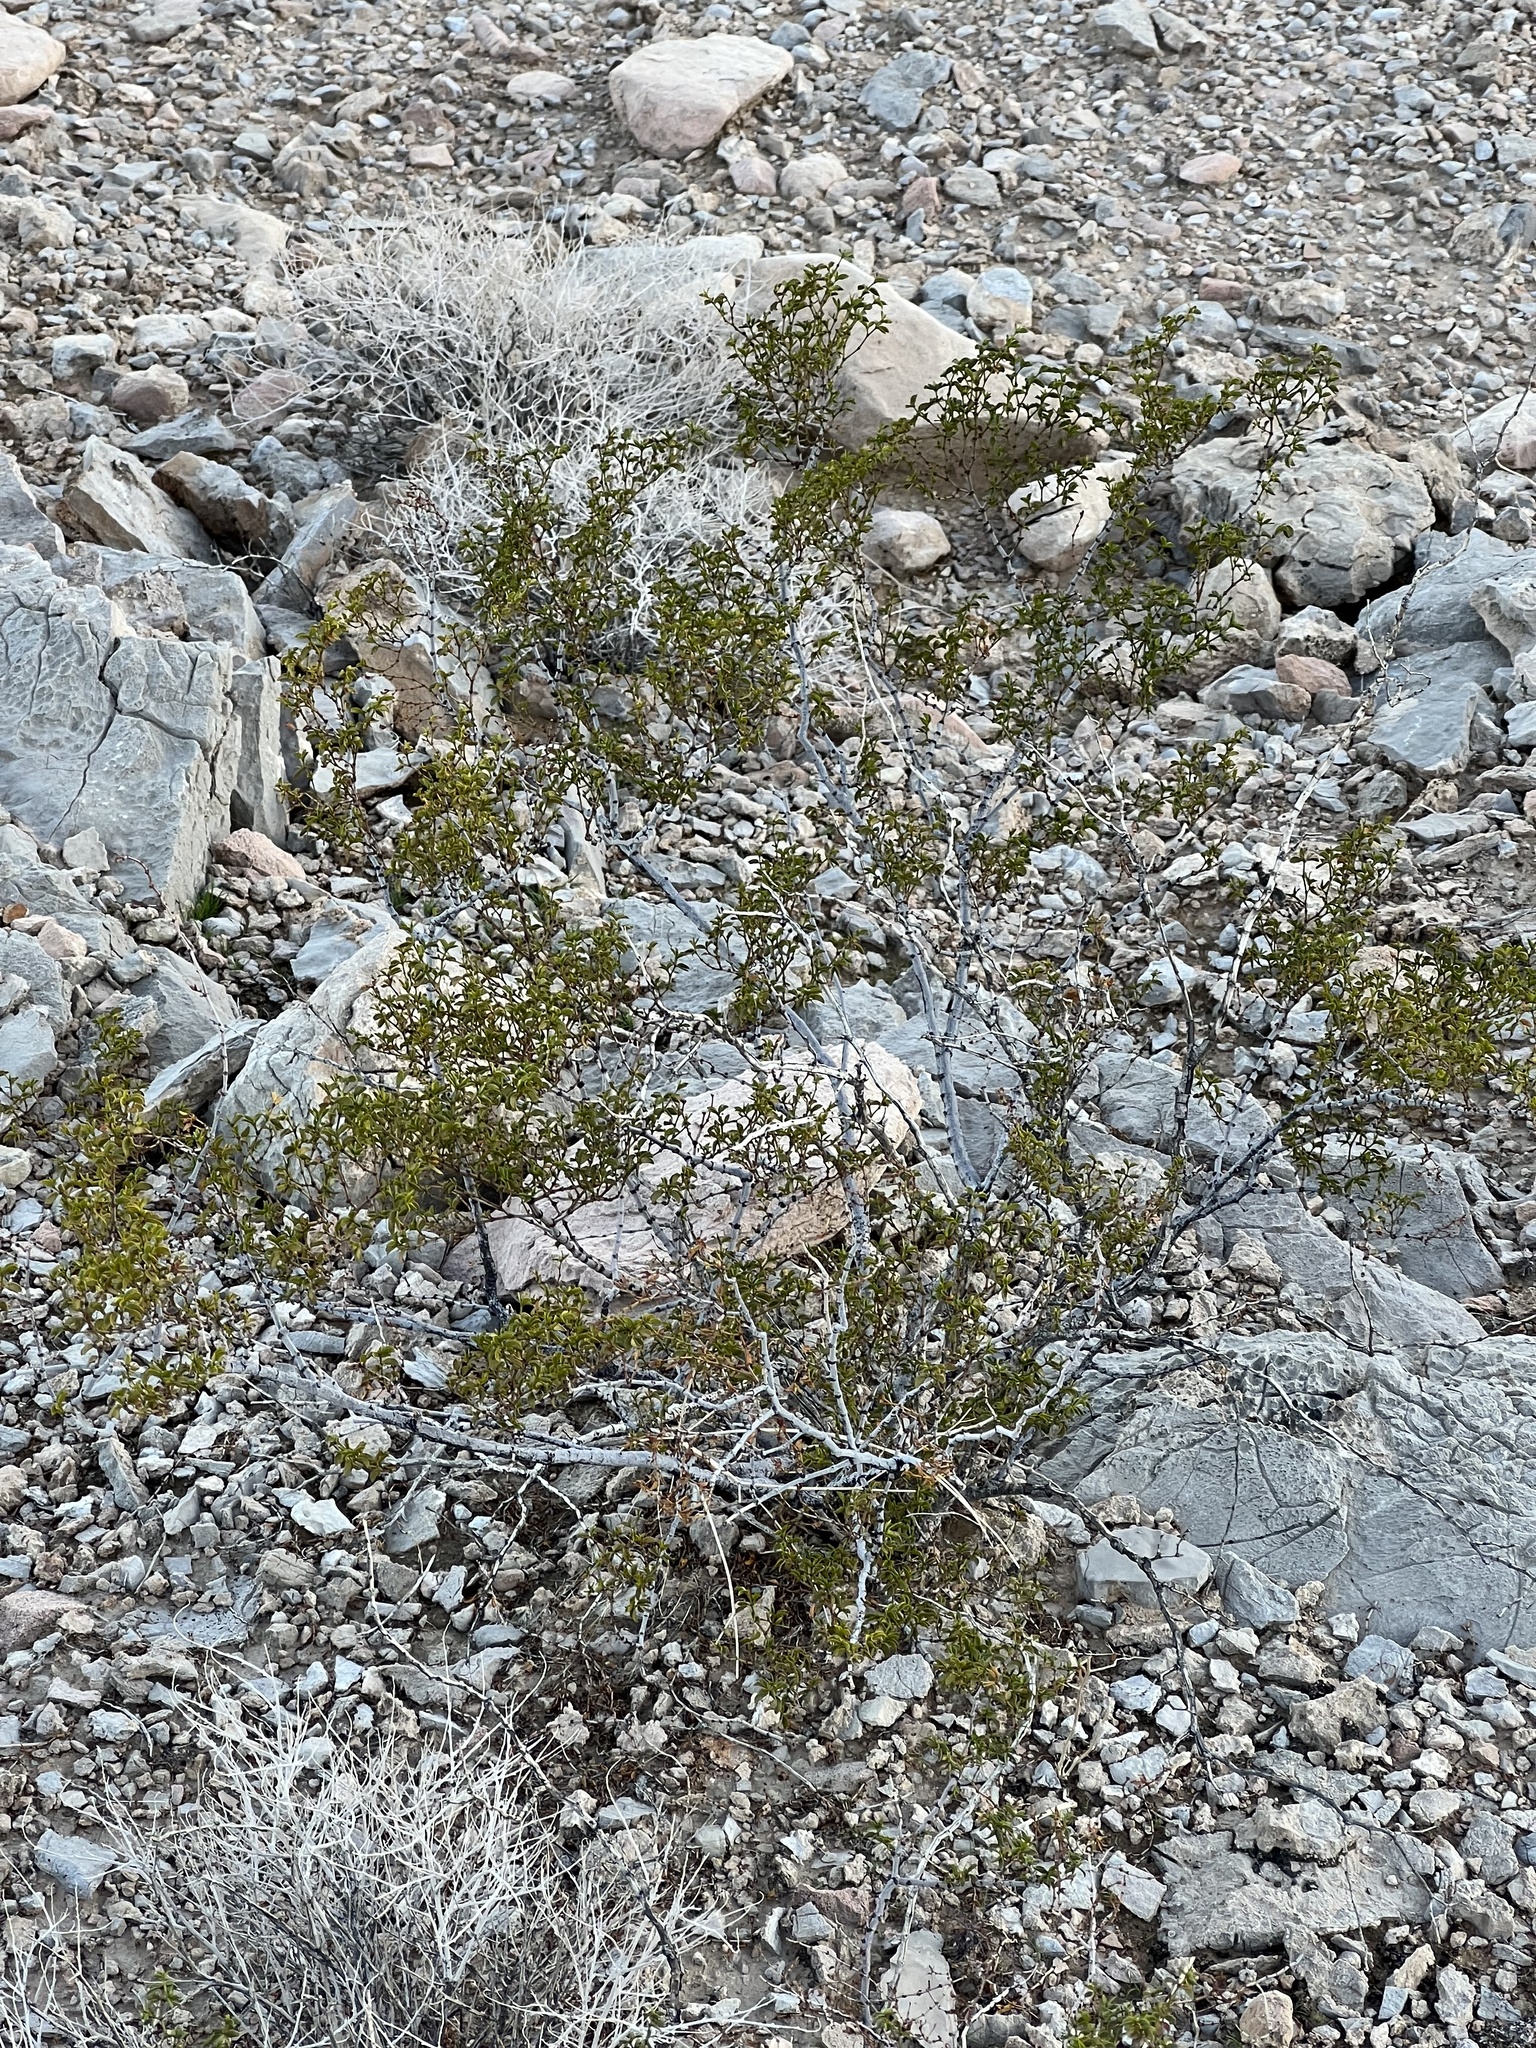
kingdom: Plantae
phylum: Tracheophyta
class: Magnoliopsida
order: Zygophyllales
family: Zygophyllaceae
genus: Larrea
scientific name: Larrea tridentata
